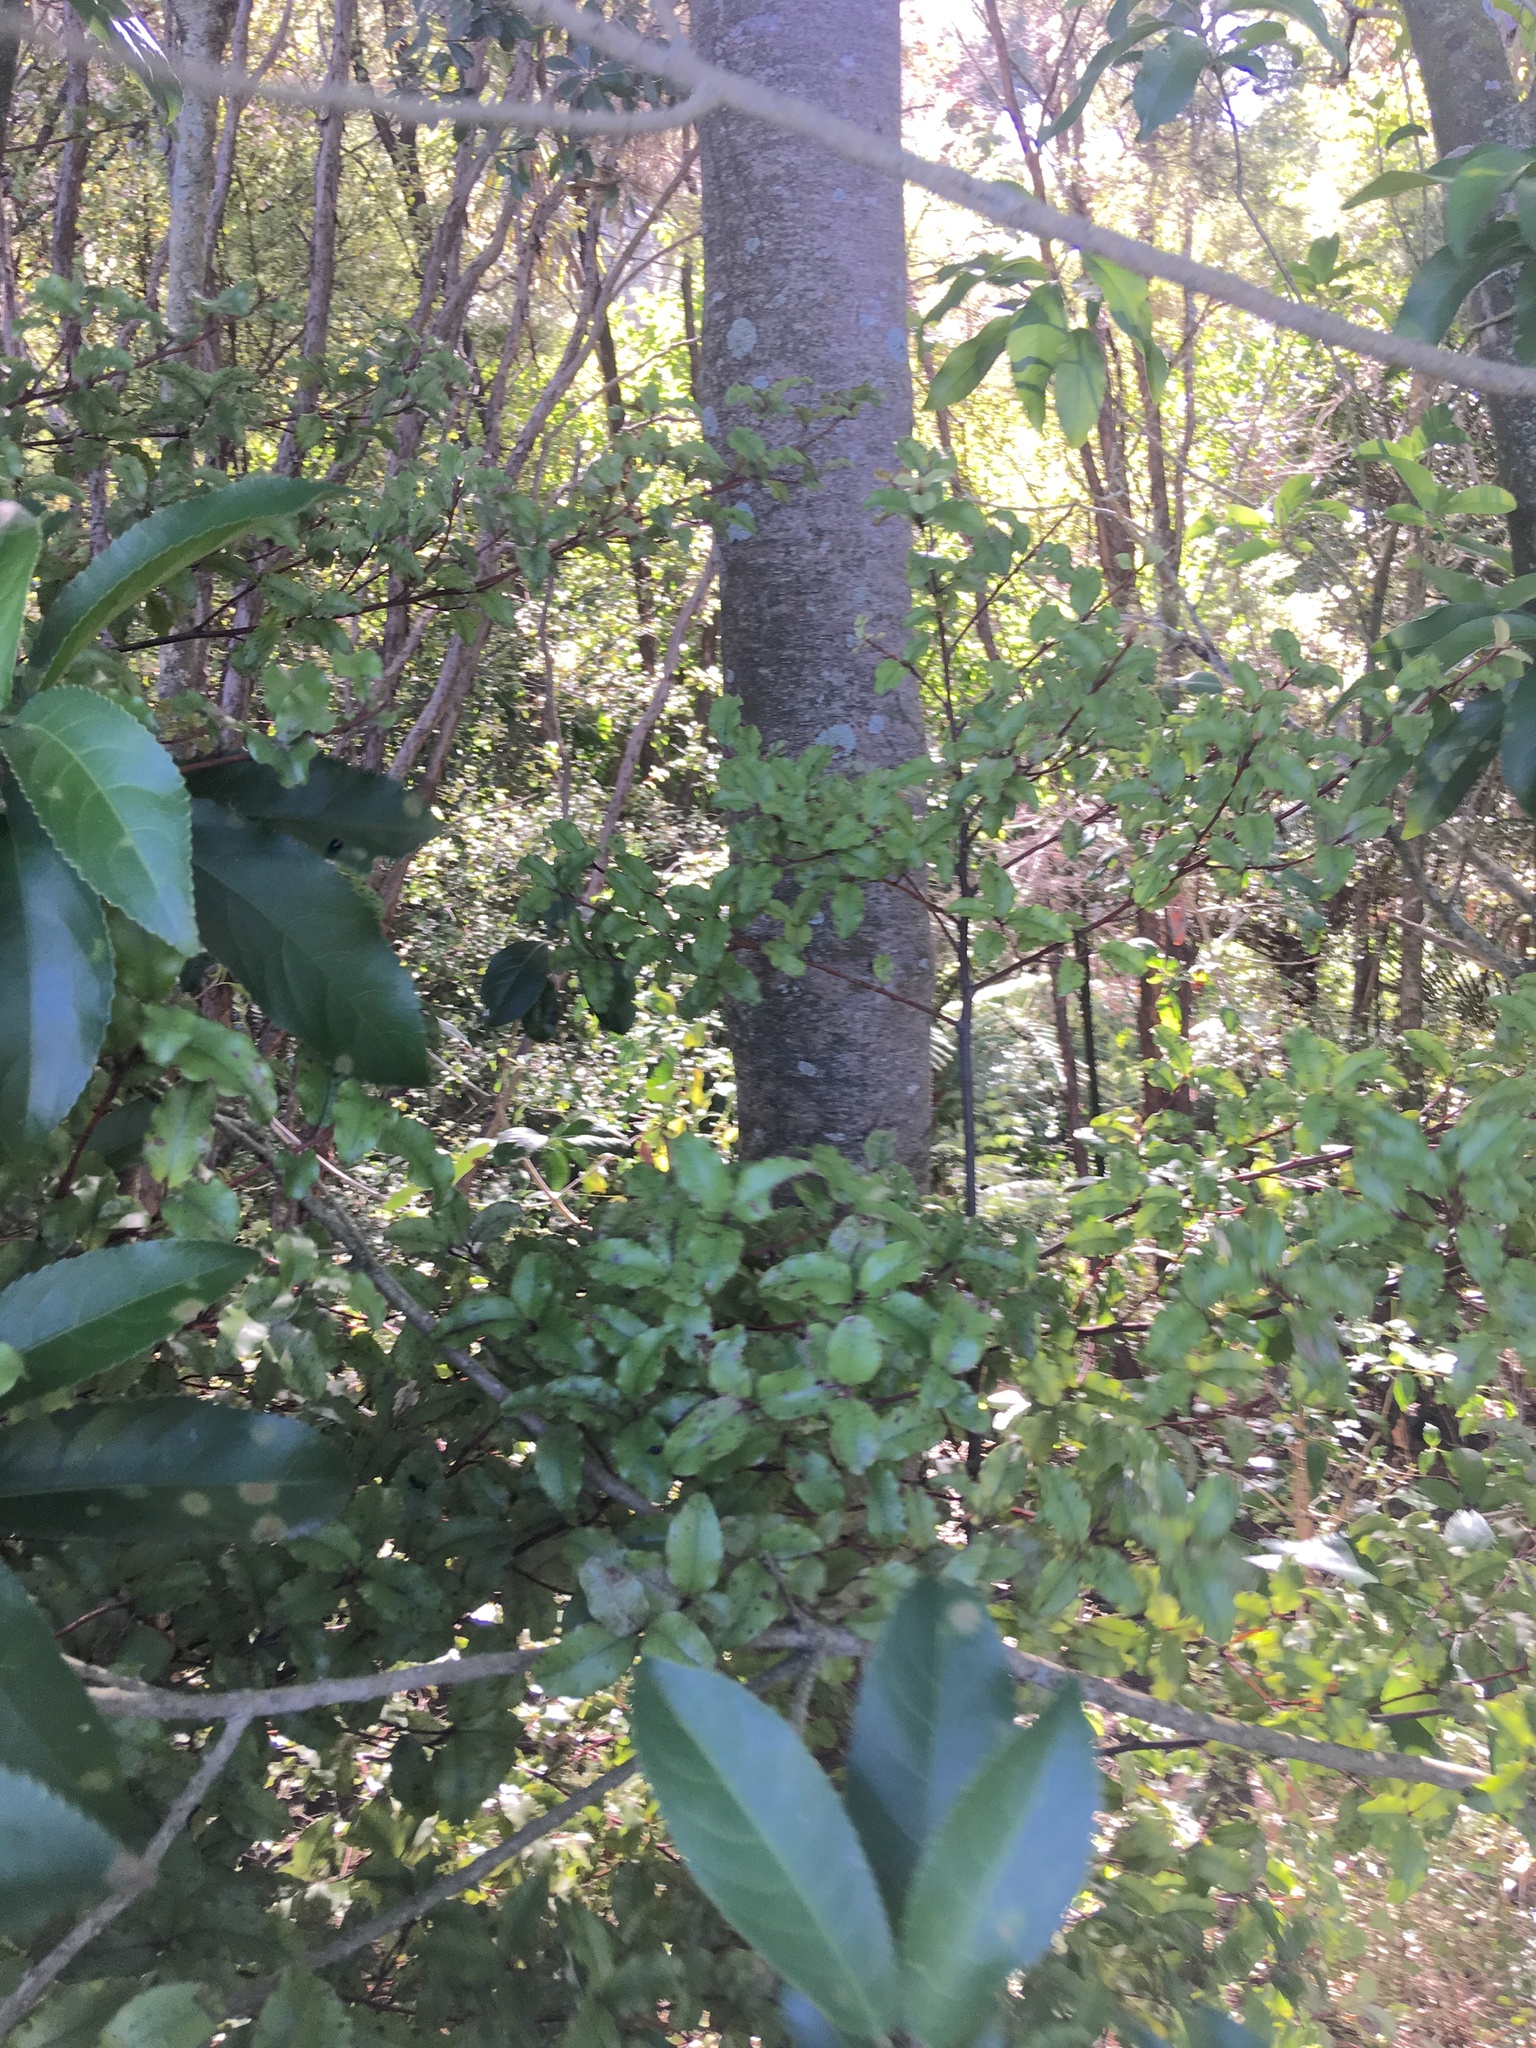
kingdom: Plantae
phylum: Tracheophyta
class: Magnoliopsida
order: Malpighiales
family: Violaceae
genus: Melicytus
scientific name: Melicytus ramiflorus
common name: Mahoe
